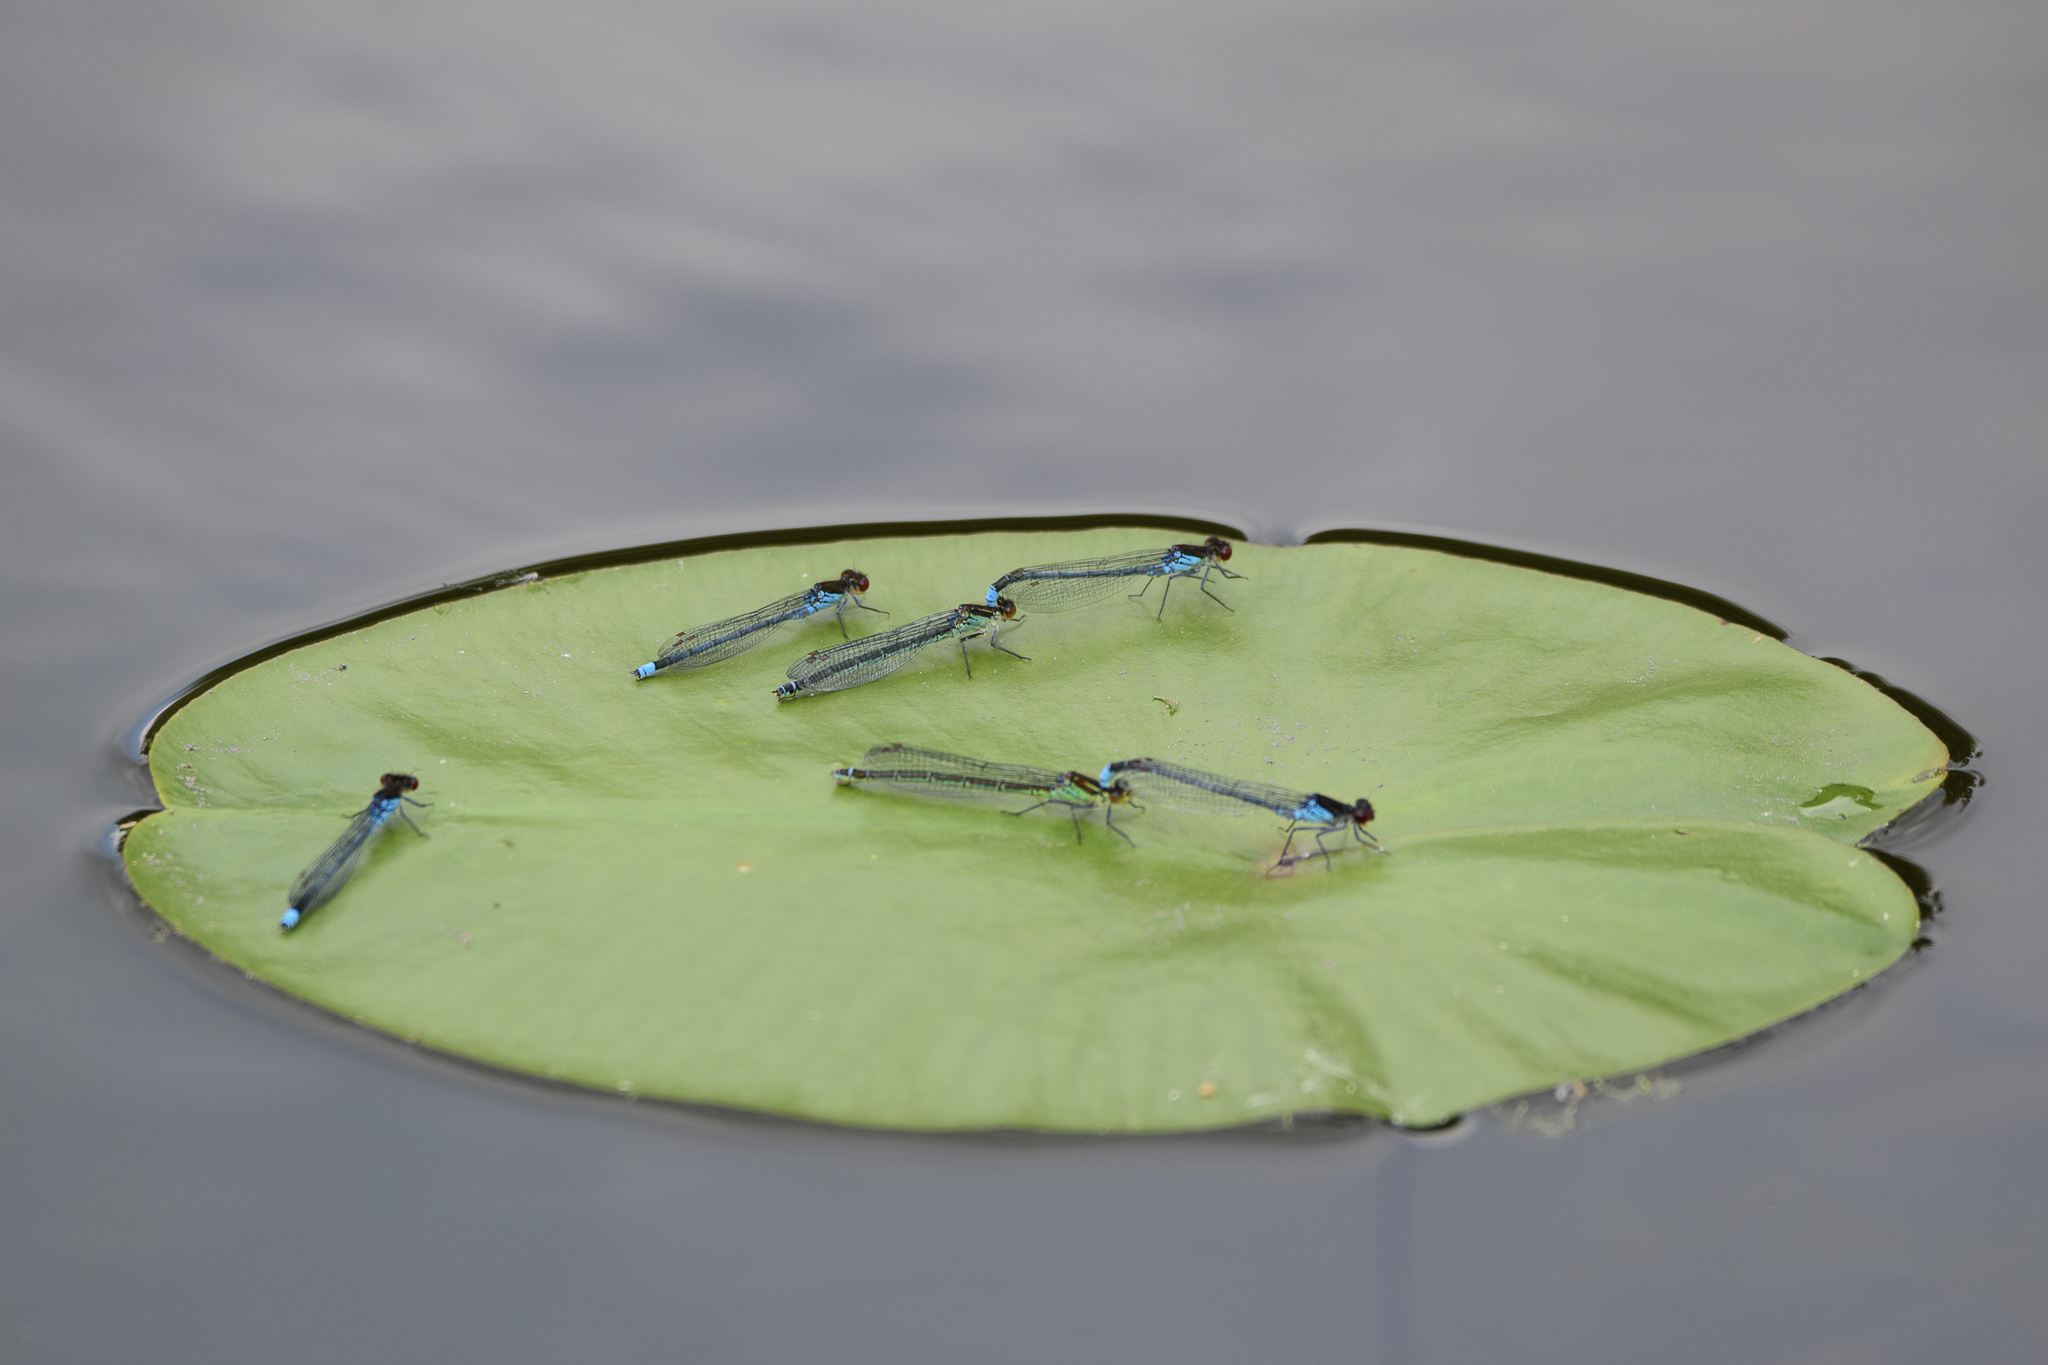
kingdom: Animalia
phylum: Arthropoda
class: Insecta
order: Odonata
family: Coenagrionidae
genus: Erythromma
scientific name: Erythromma najas
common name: Red-eyed damselfly
